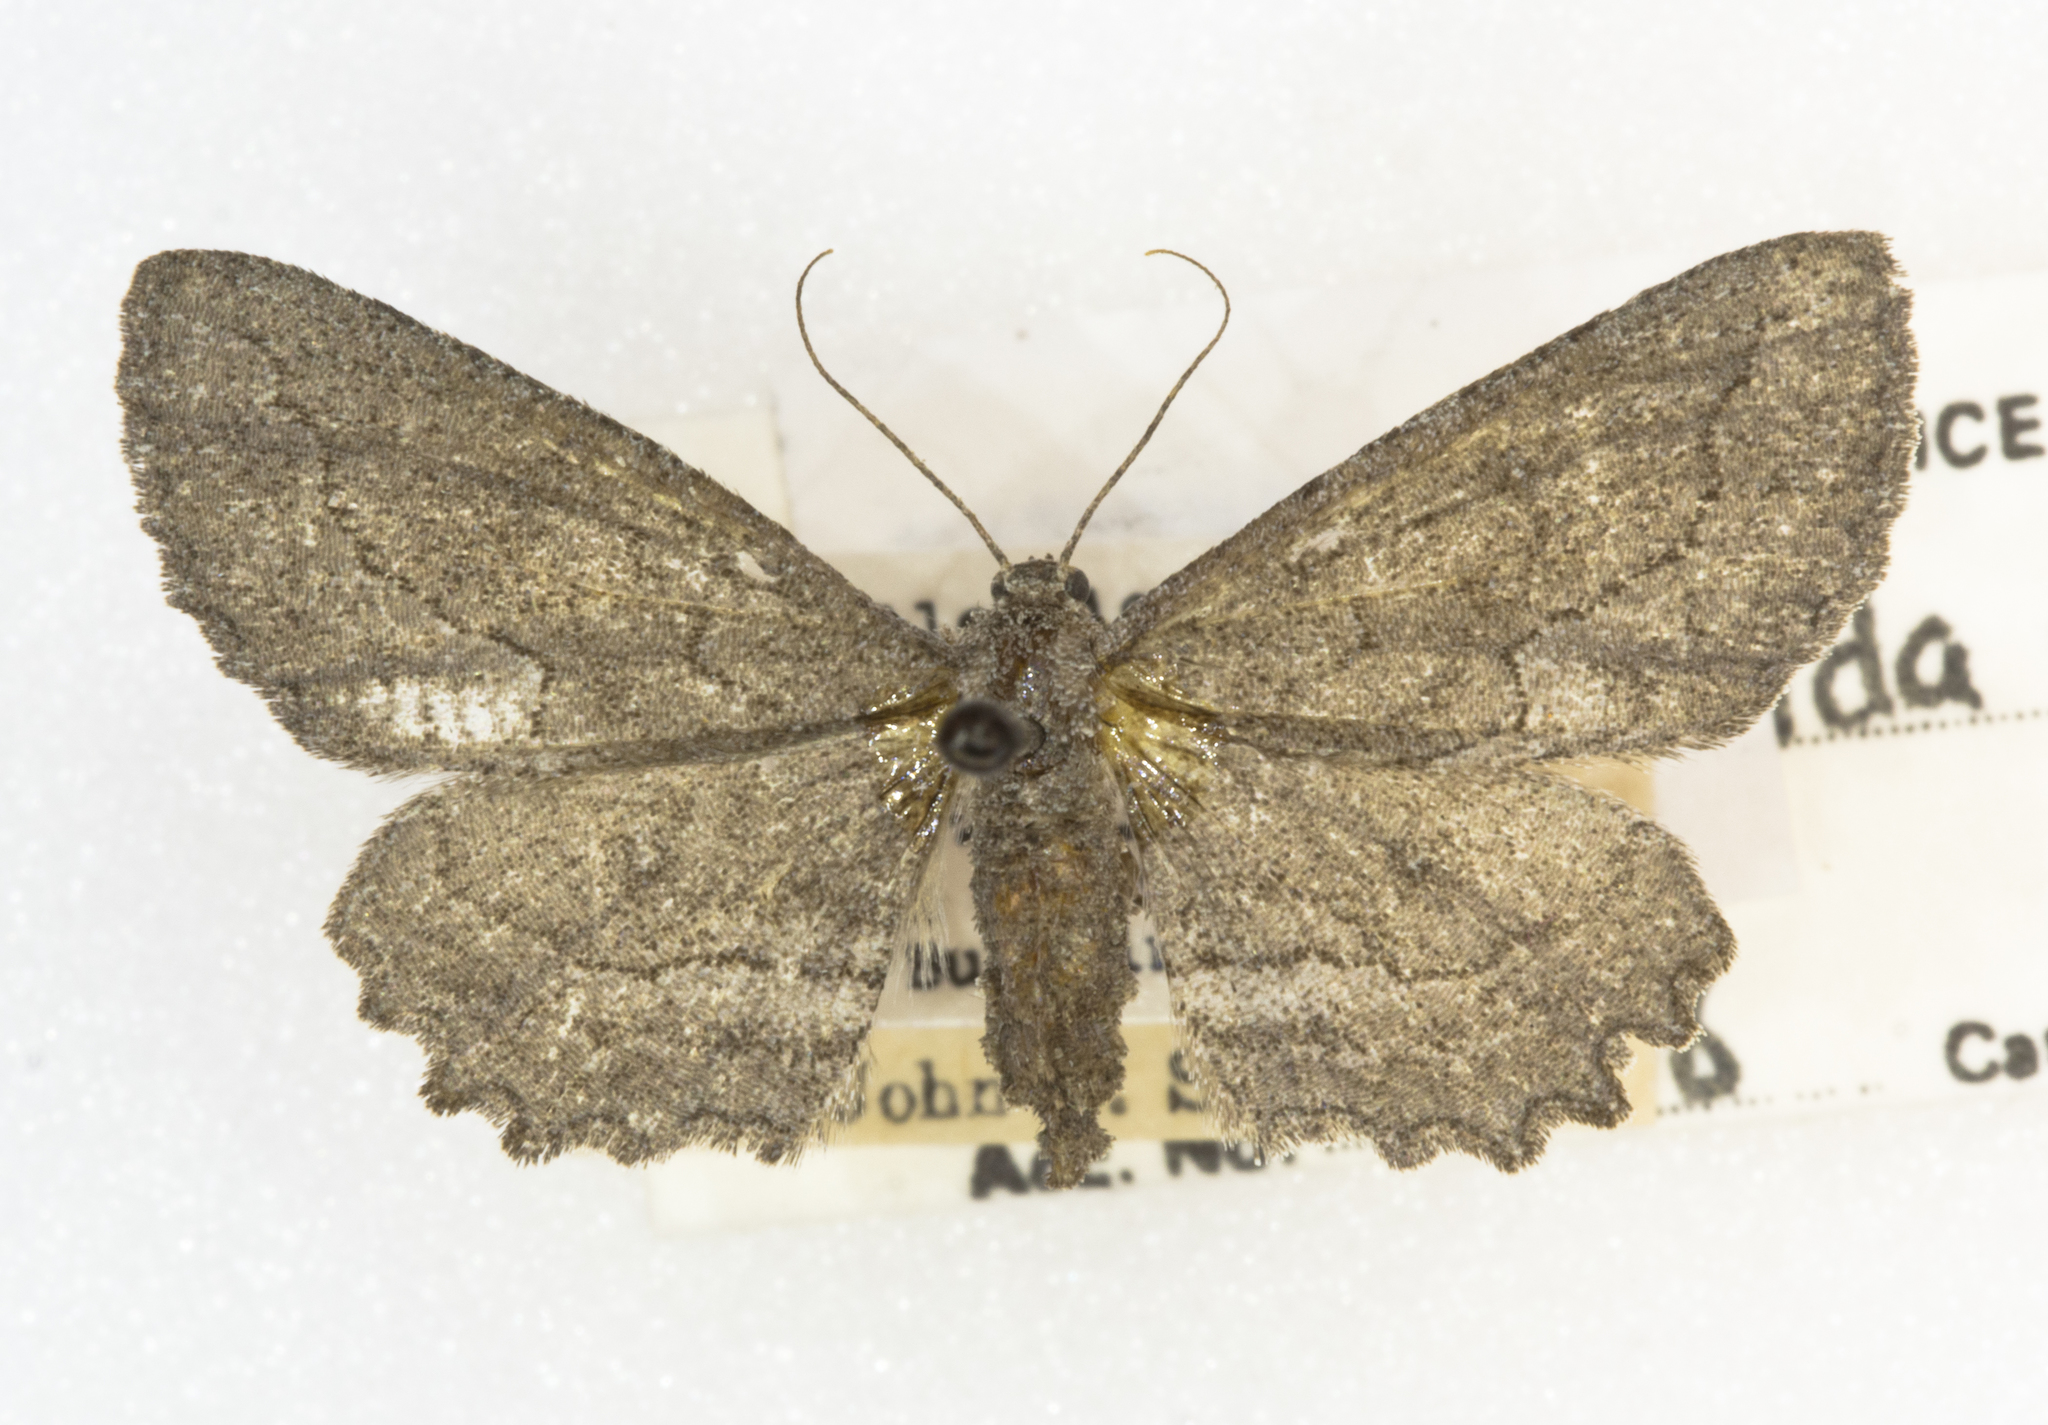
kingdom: Animalia
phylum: Arthropoda
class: Insecta
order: Lepidoptera
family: Geometridae
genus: Aethaloida
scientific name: Aethaloida packardaria
